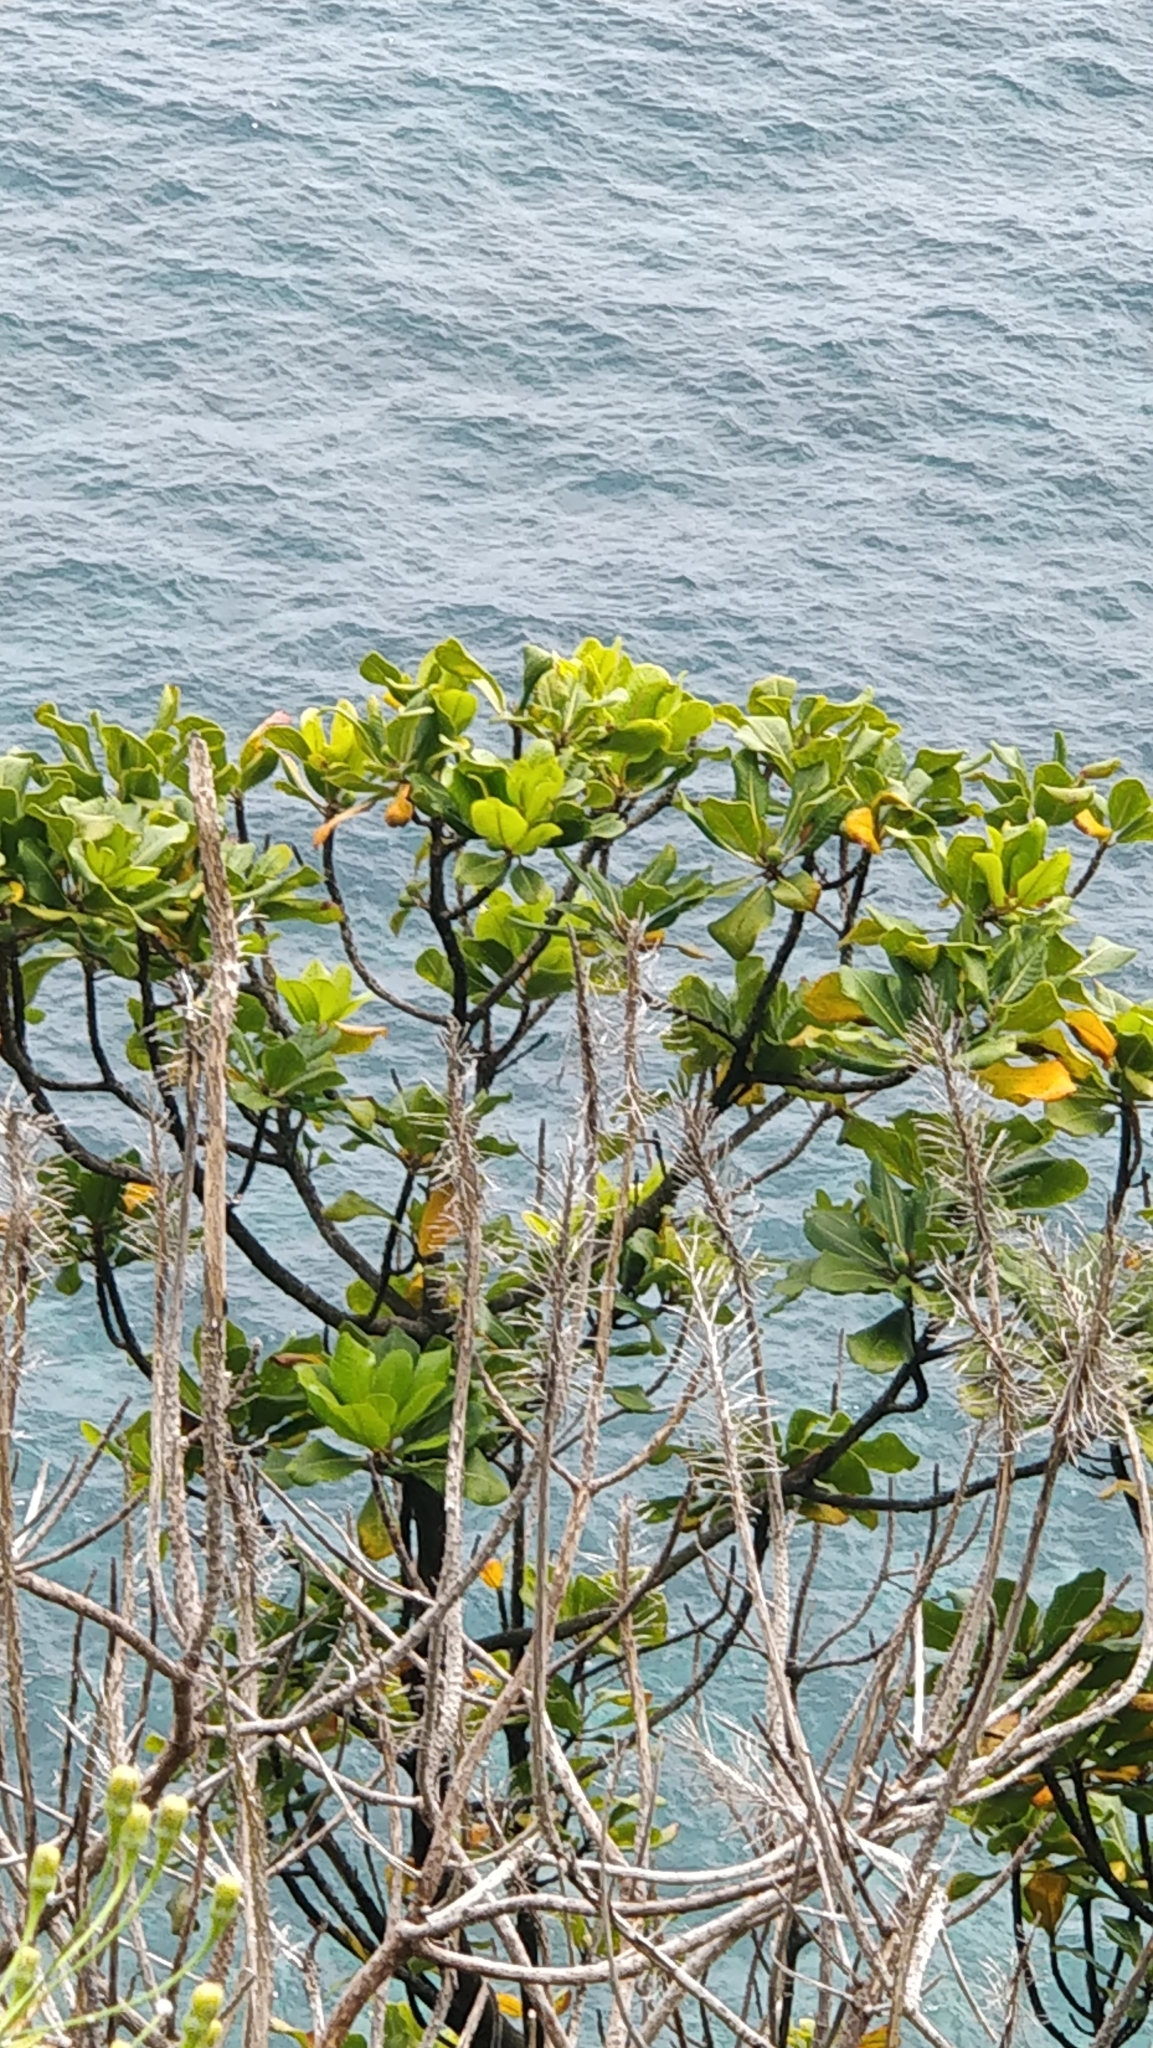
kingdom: Plantae
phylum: Tracheophyta
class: Magnoliopsida
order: Ericales
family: Sapotaceae
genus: Sideroxylon
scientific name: Sideroxylon mirmulans
